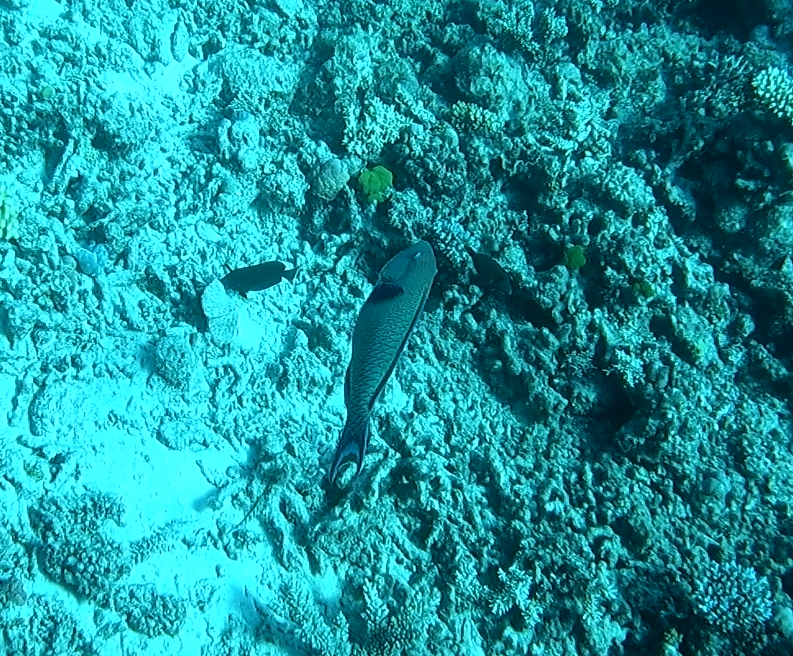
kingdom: Animalia
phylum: Chordata
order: Perciformes
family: Scaridae
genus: Cetoscarus
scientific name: Cetoscarus ocellatus
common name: Bicolor parrotfish
